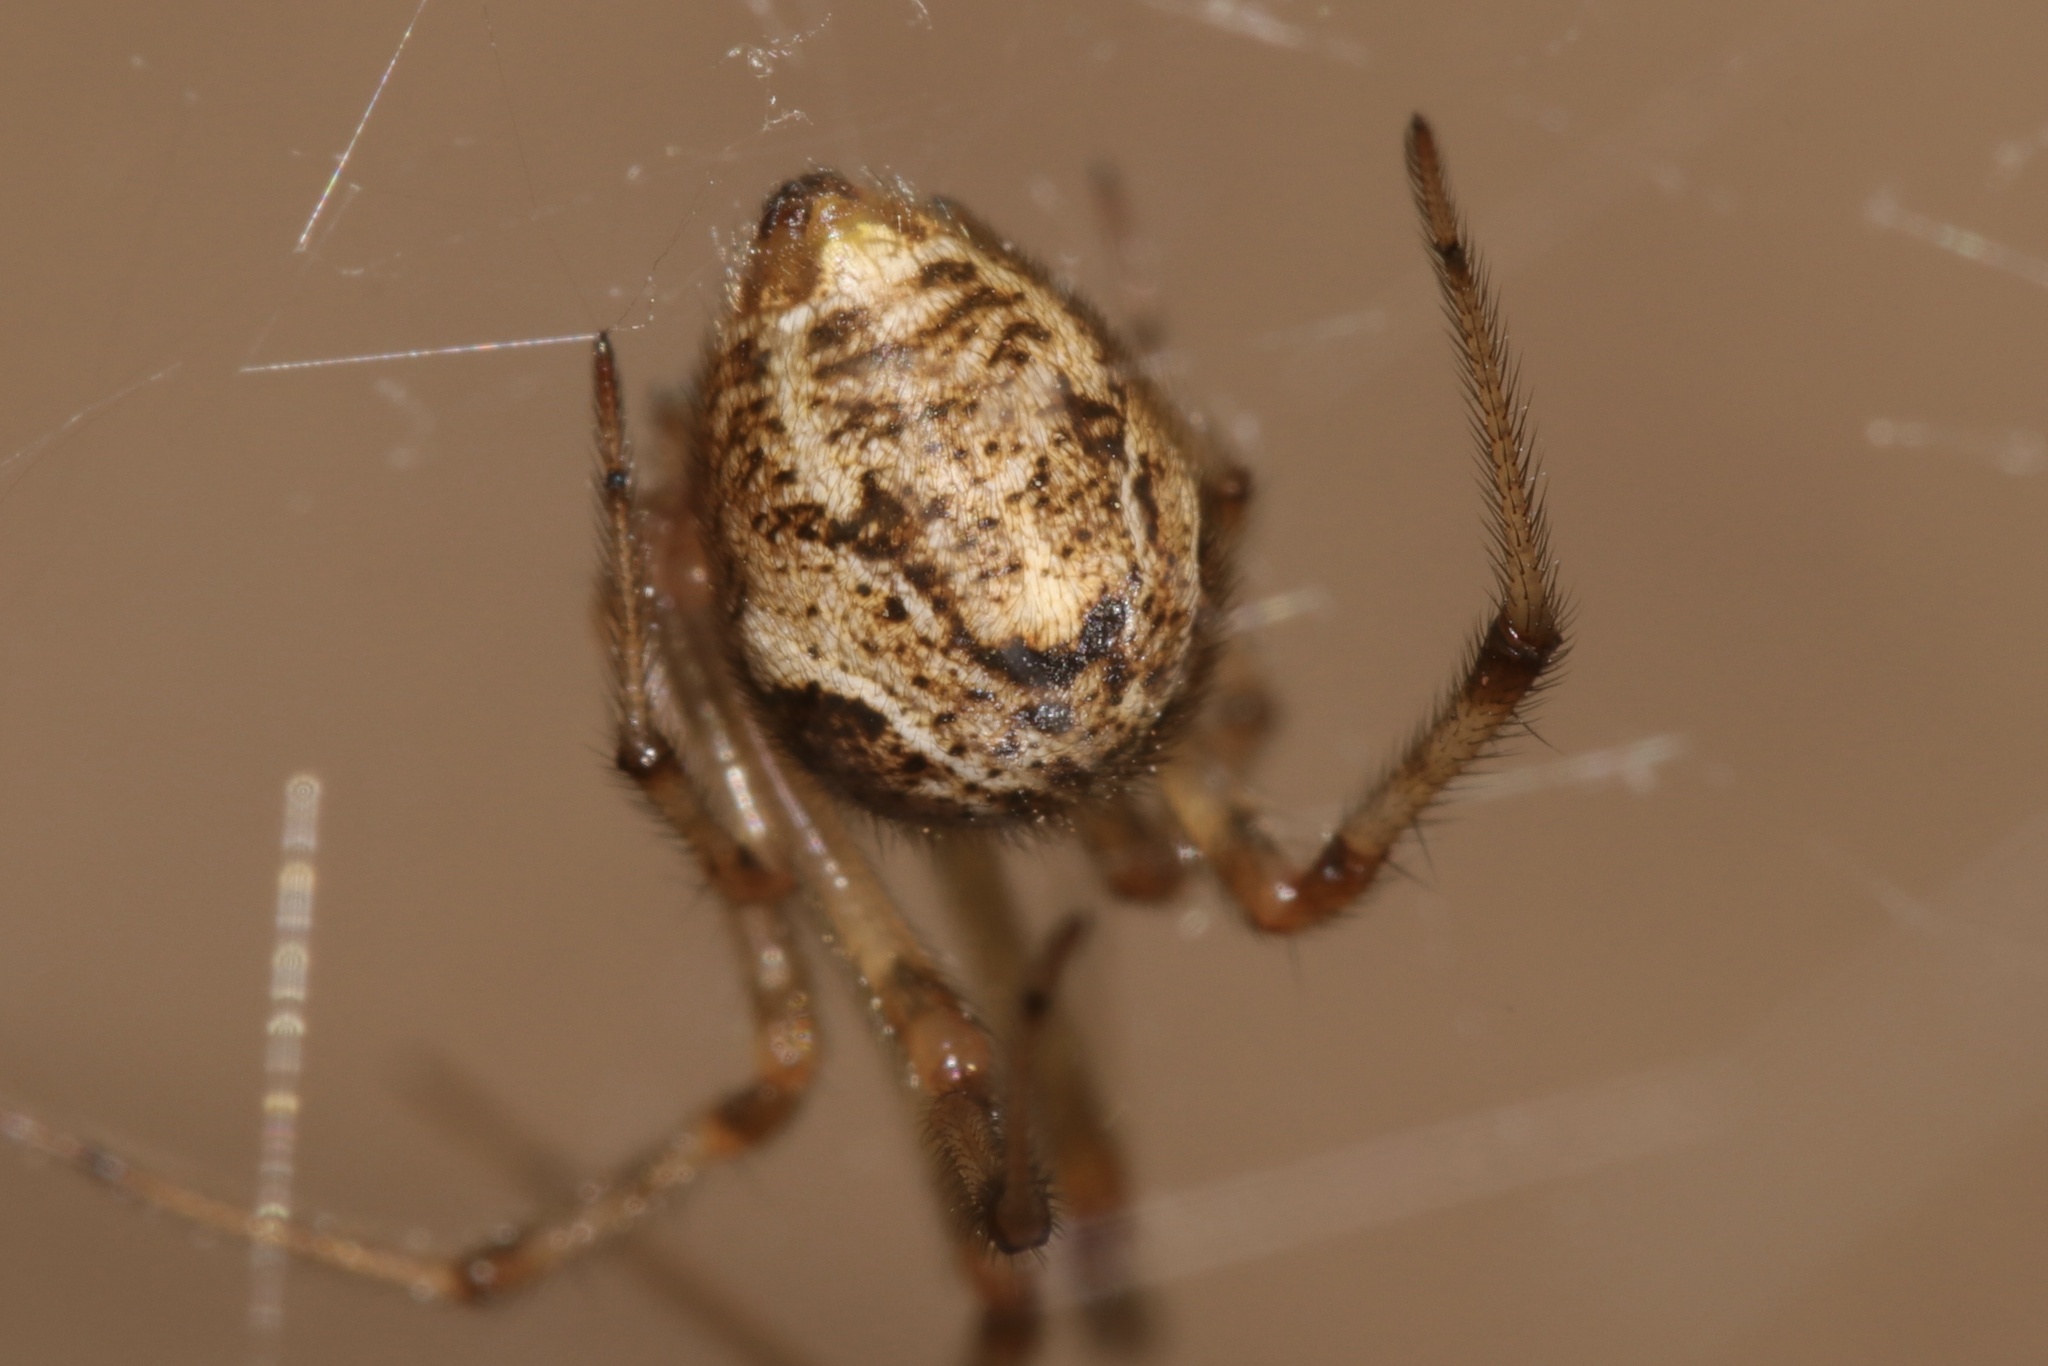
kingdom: Animalia
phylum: Arthropoda
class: Arachnida
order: Araneae
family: Theridiidae
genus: Parasteatoda
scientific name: Parasteatoda tepidariorum
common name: Common house spider
